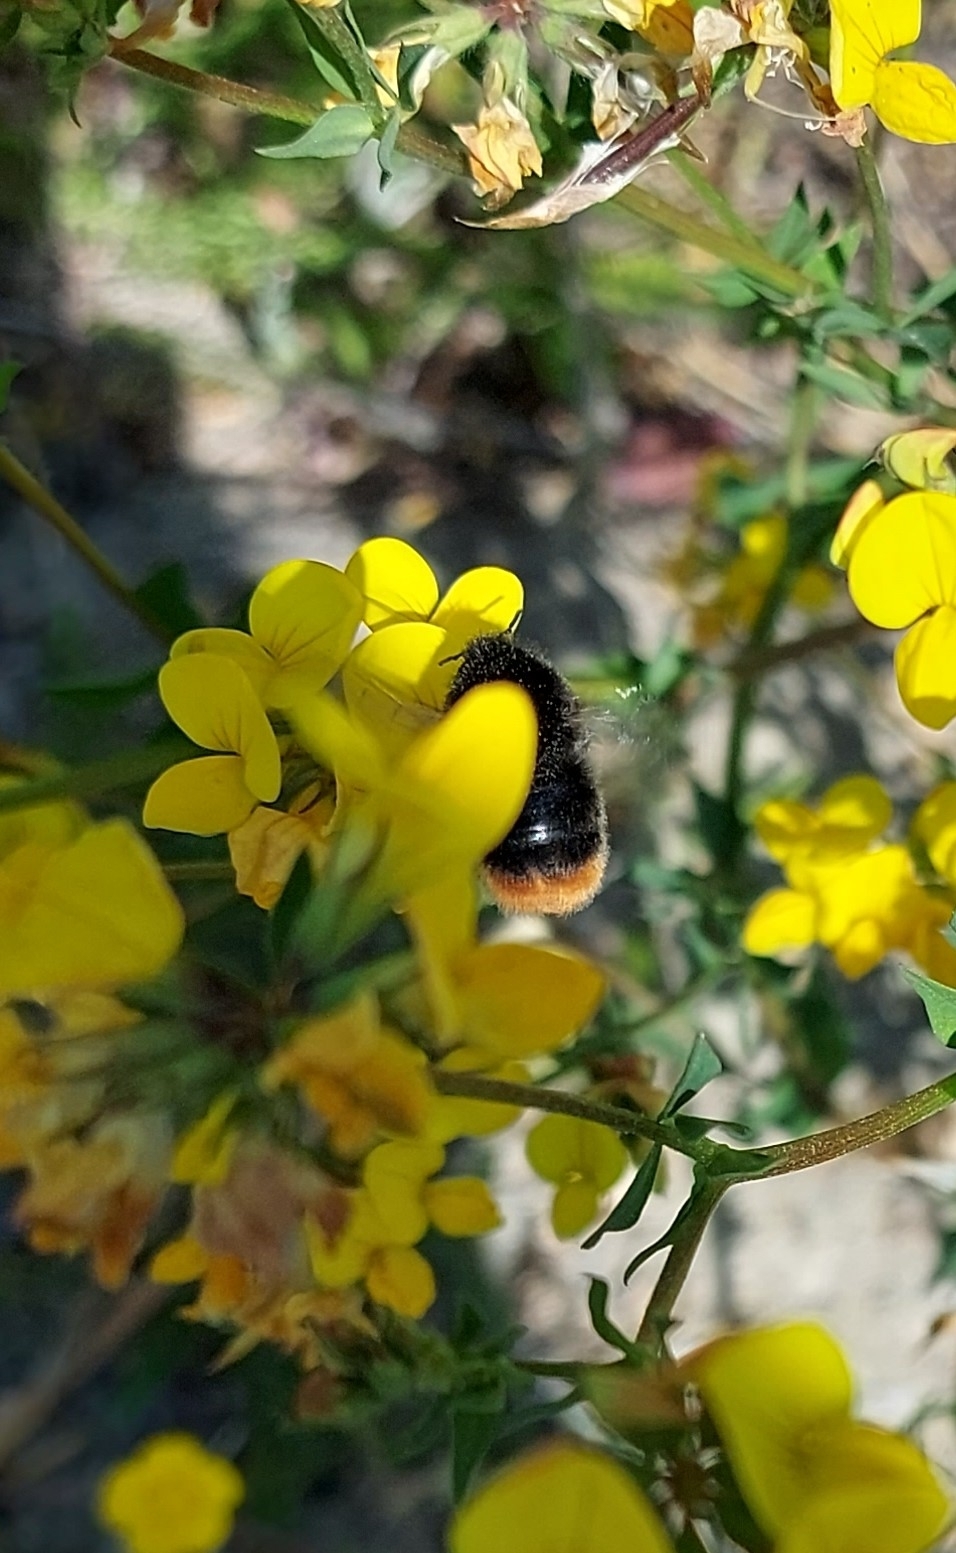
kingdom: Animalia
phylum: Arthropoda
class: Insecta
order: Hymenoptera
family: Apidae
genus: Bombus
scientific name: Bombus lapidarius
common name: Large red-tailed humble-bee
